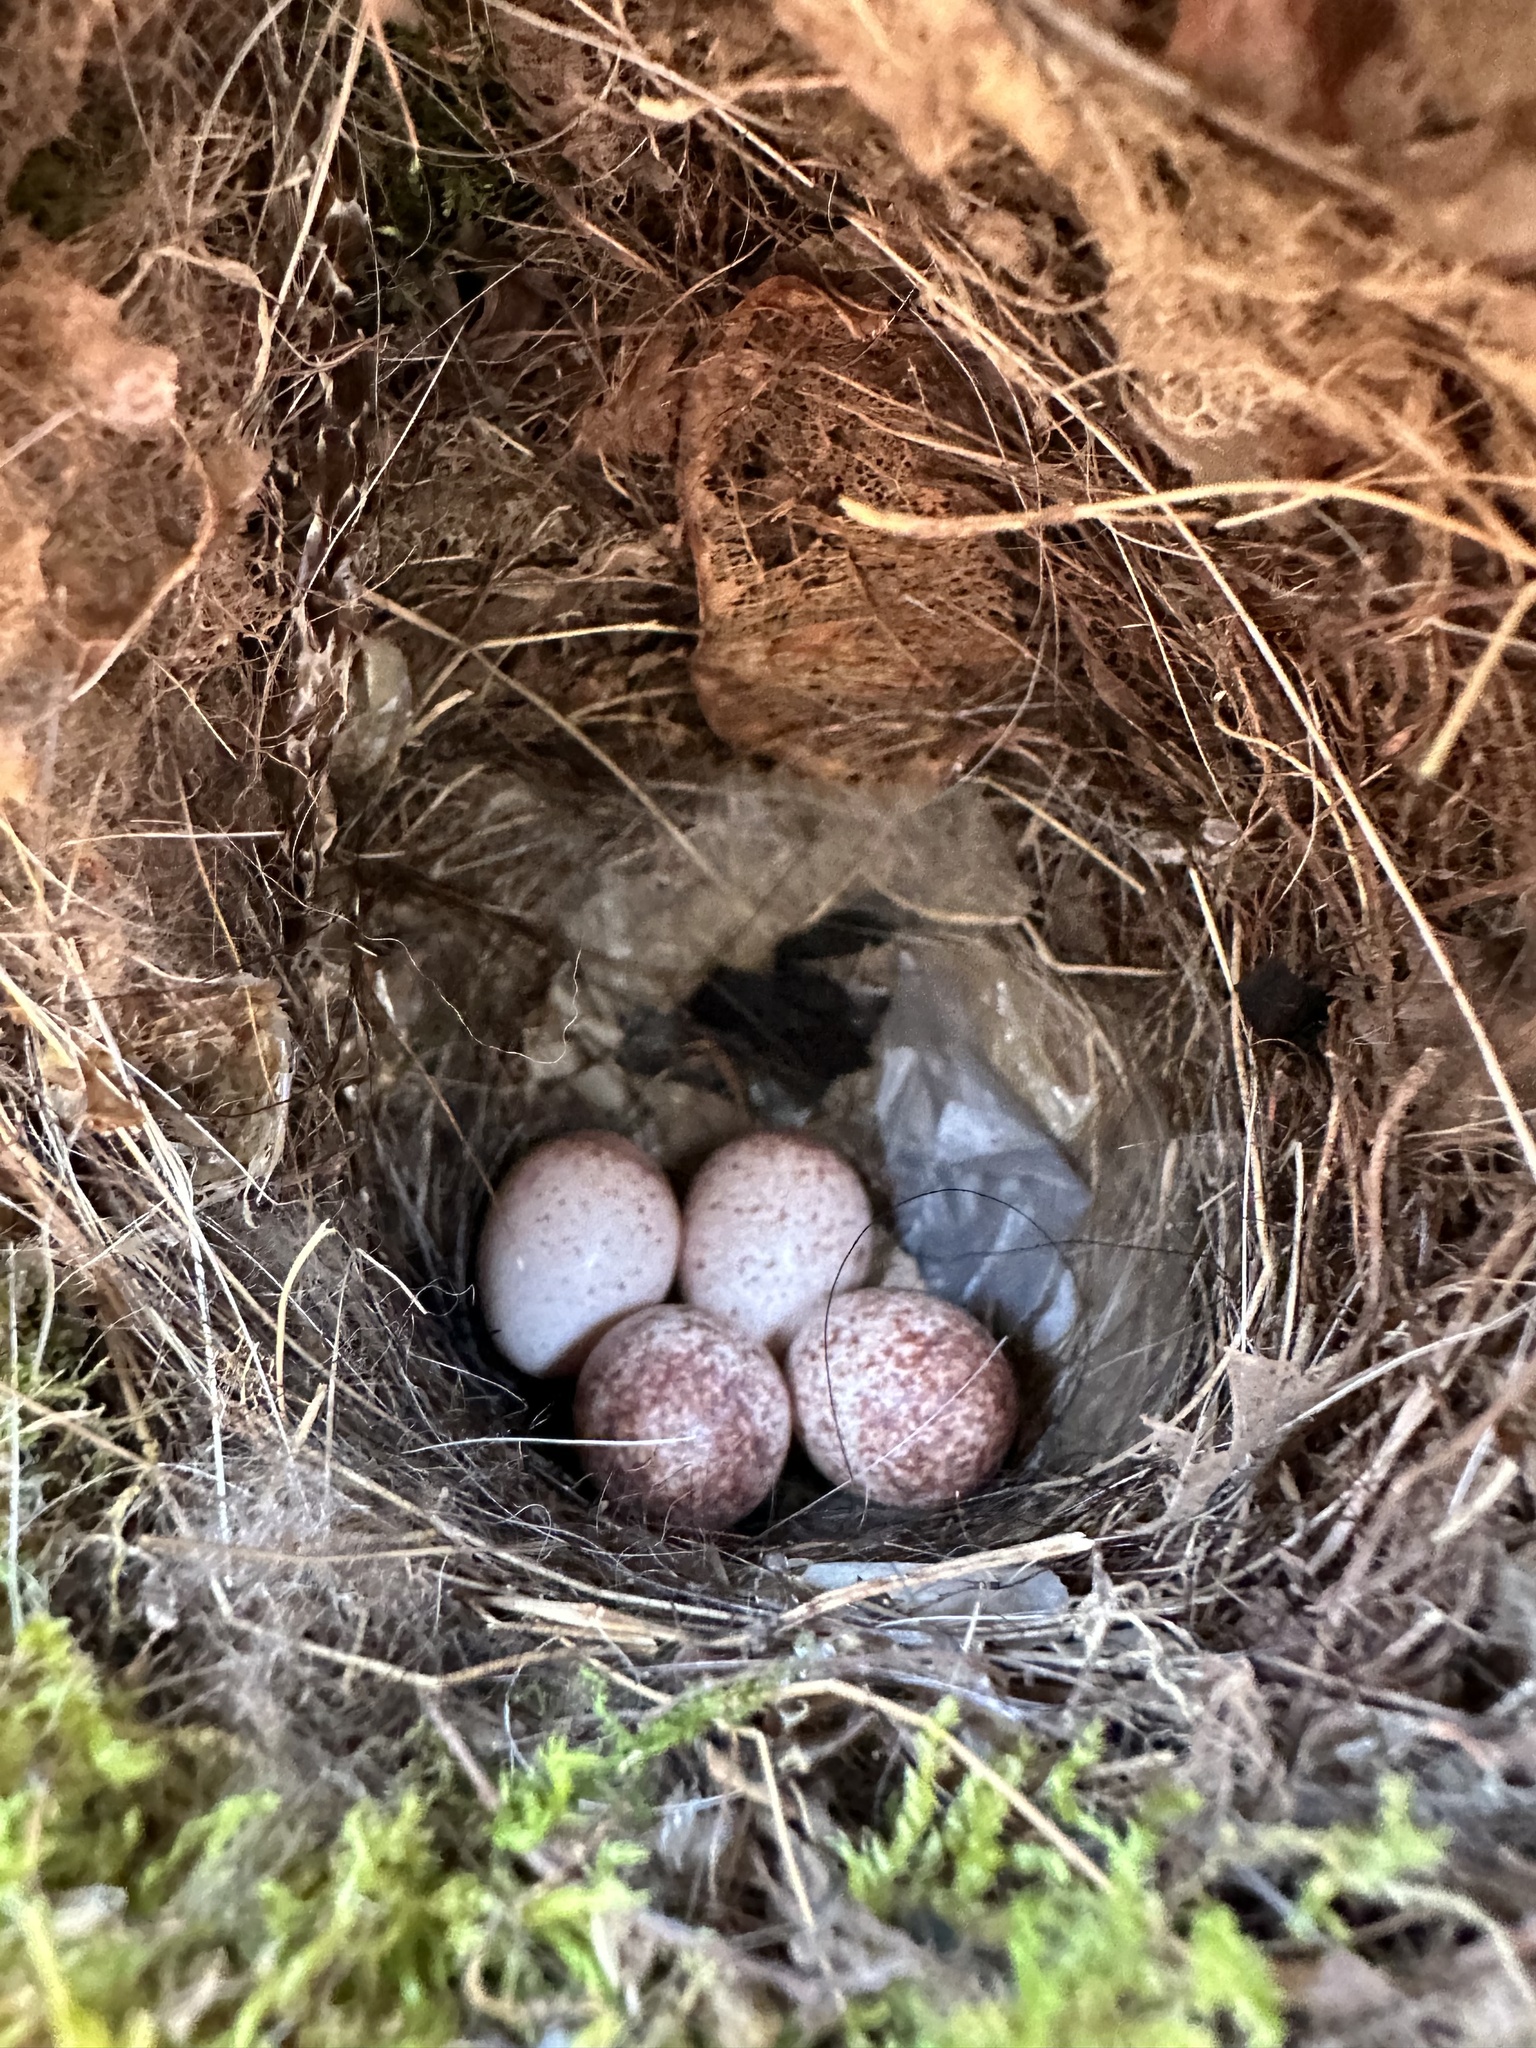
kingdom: Animalia
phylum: Chordata
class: Aves
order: Passeriformes
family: Troglodytidae
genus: Thryothorus
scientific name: Thryothorus ludovicianus
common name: Carolina wren
